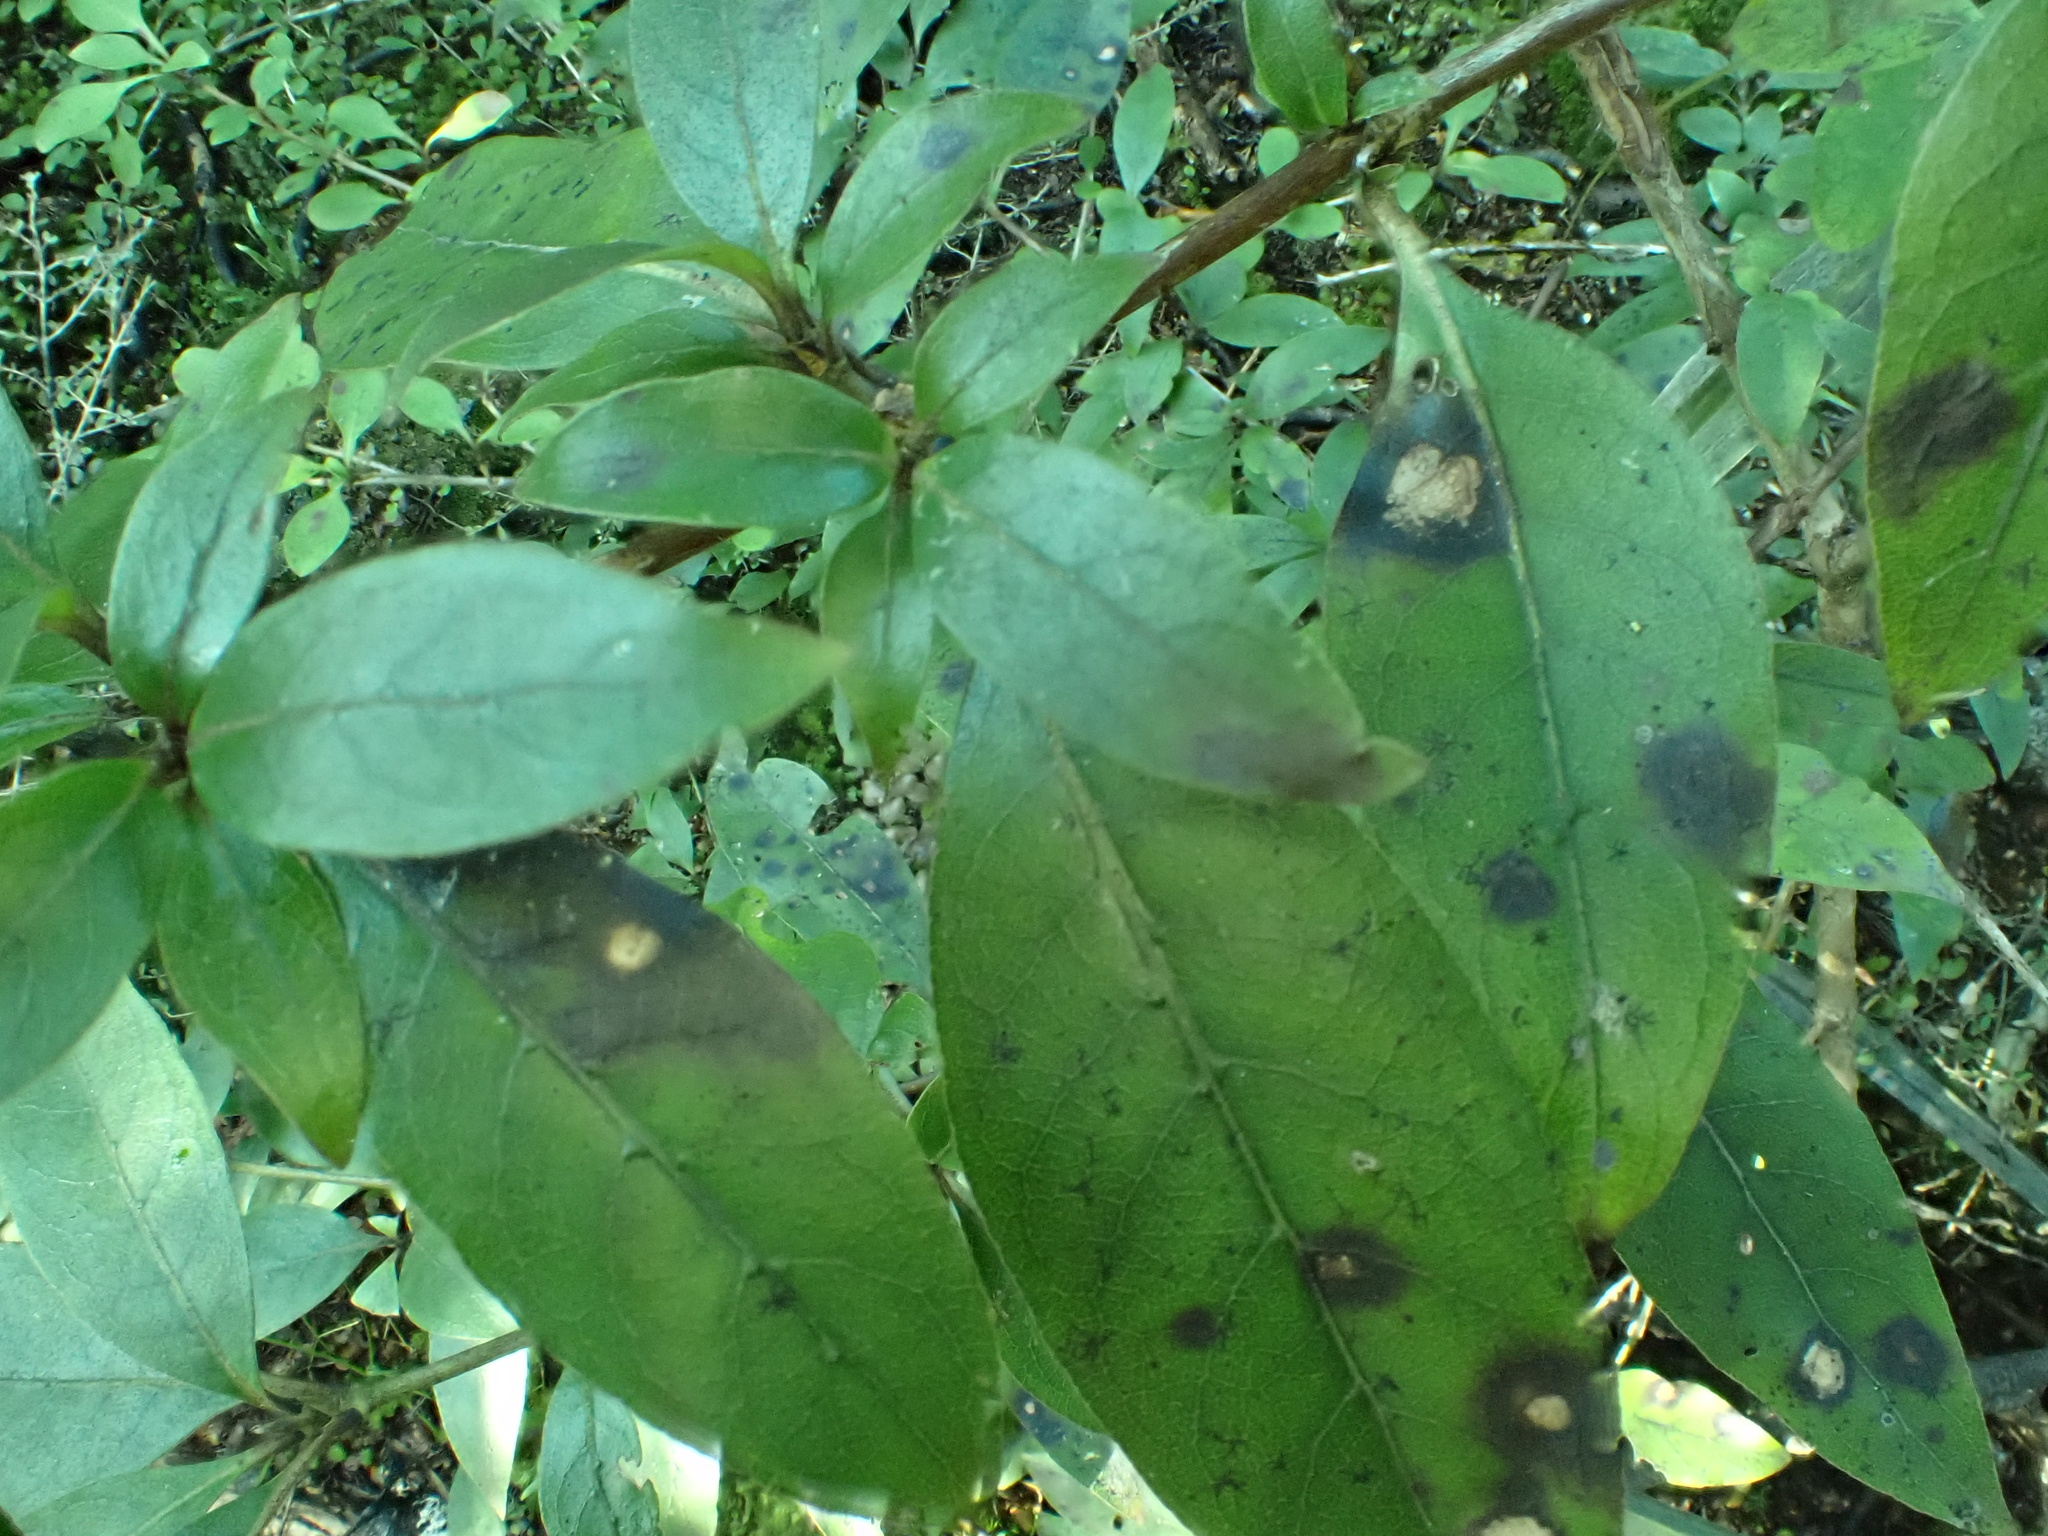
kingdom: Plantae
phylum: Tracheophyta
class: Magnoliopsida
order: Gentianales
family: Rubiaceae
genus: Coprosma
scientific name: Coprosma tenuifolia
